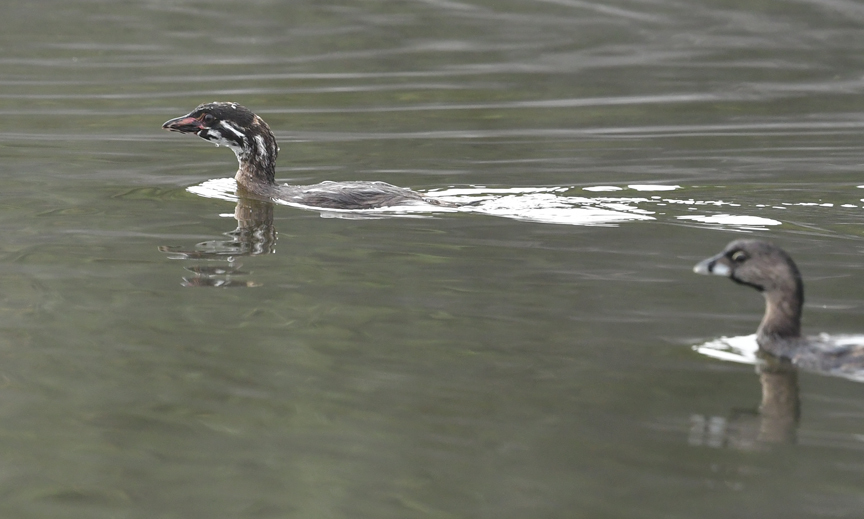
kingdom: Animalia
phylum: Chordata
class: Aves
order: Podicipediformes
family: Podicipedidae
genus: Podilymbus
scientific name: Podilymbus podiceps
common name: Pied-billed grebe
